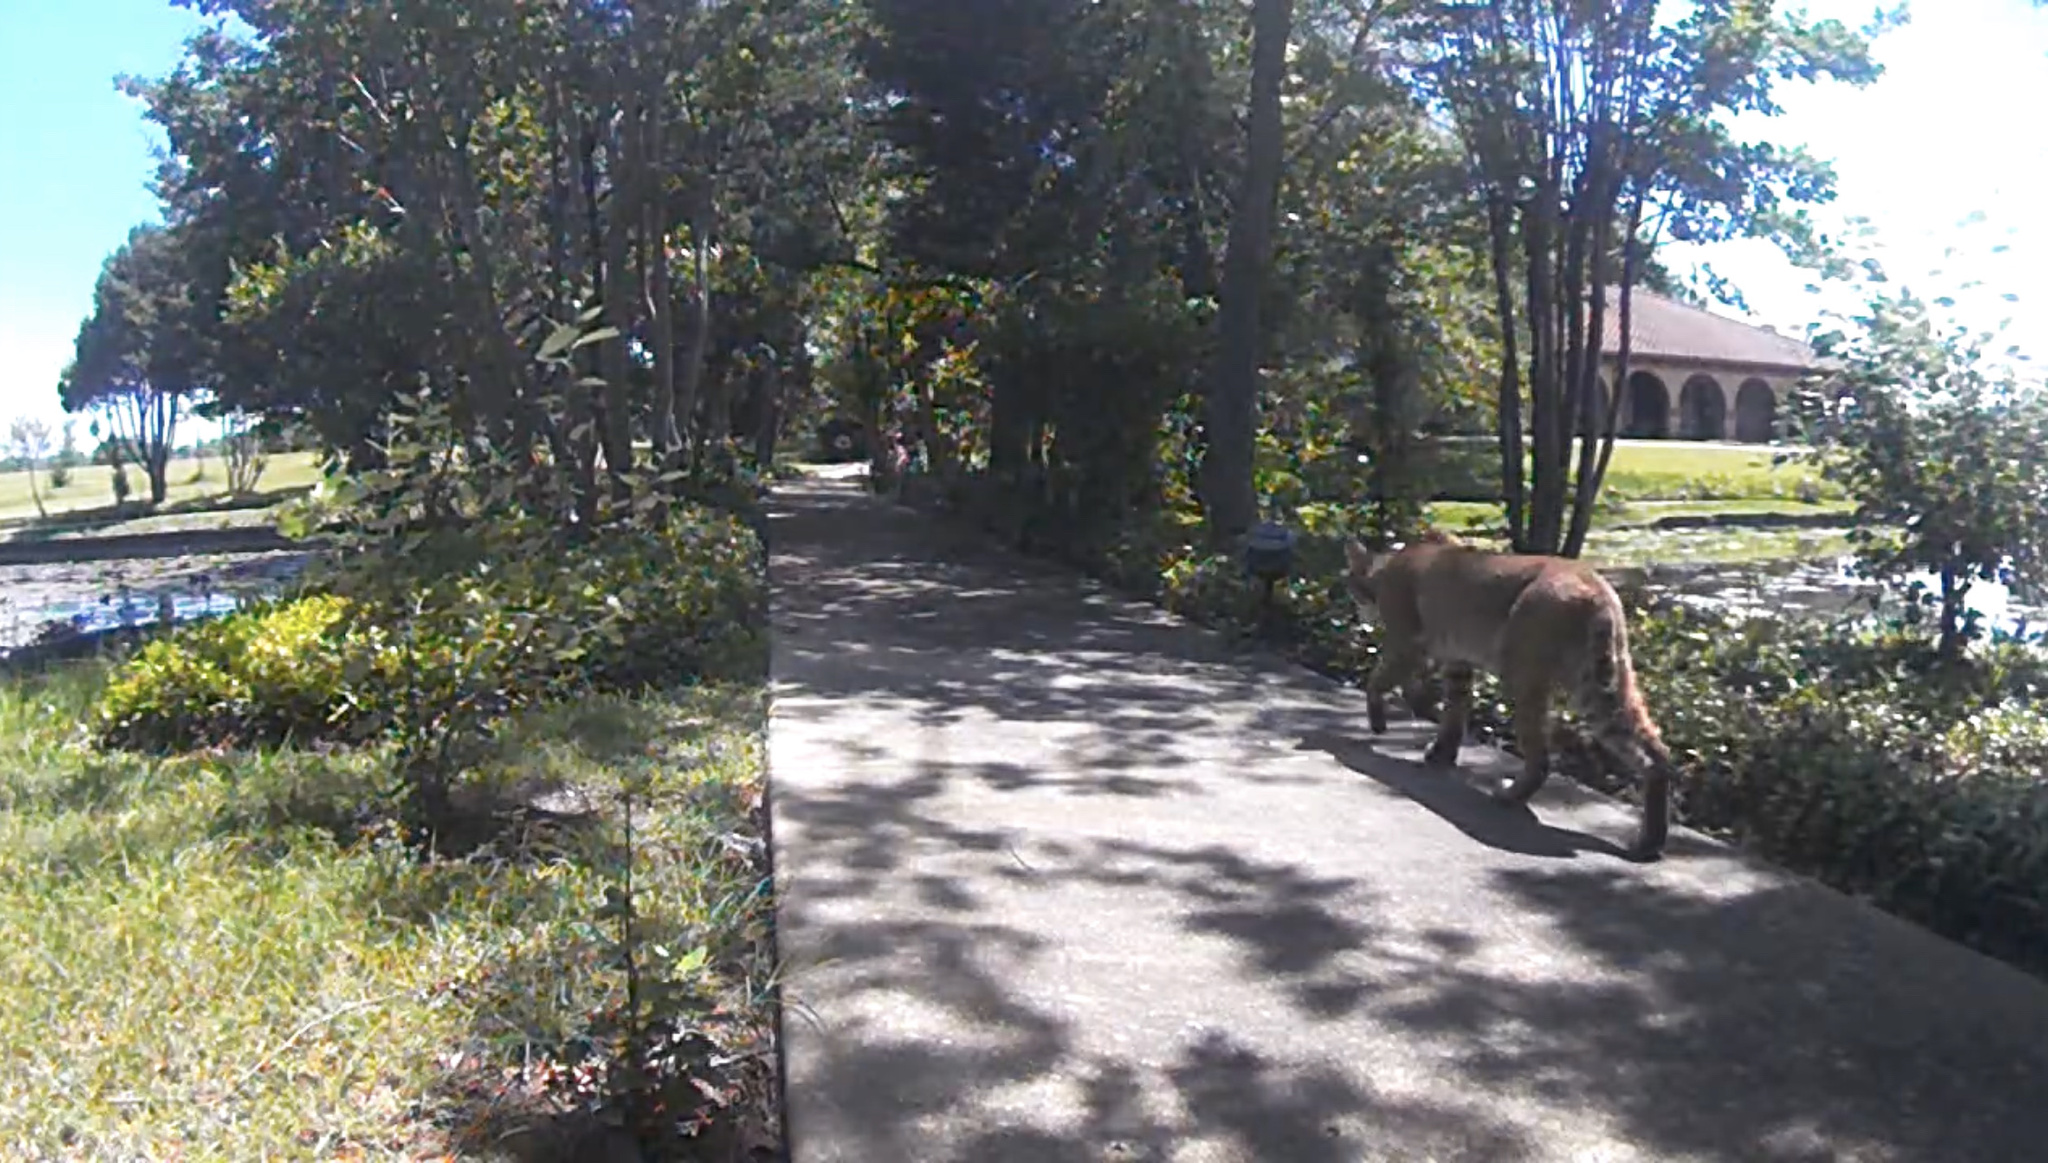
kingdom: Animalia
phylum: Chordata
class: Mammalia
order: Carnivora
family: Felidae
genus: Lynx
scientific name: Lynx rufus
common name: Bobcat
